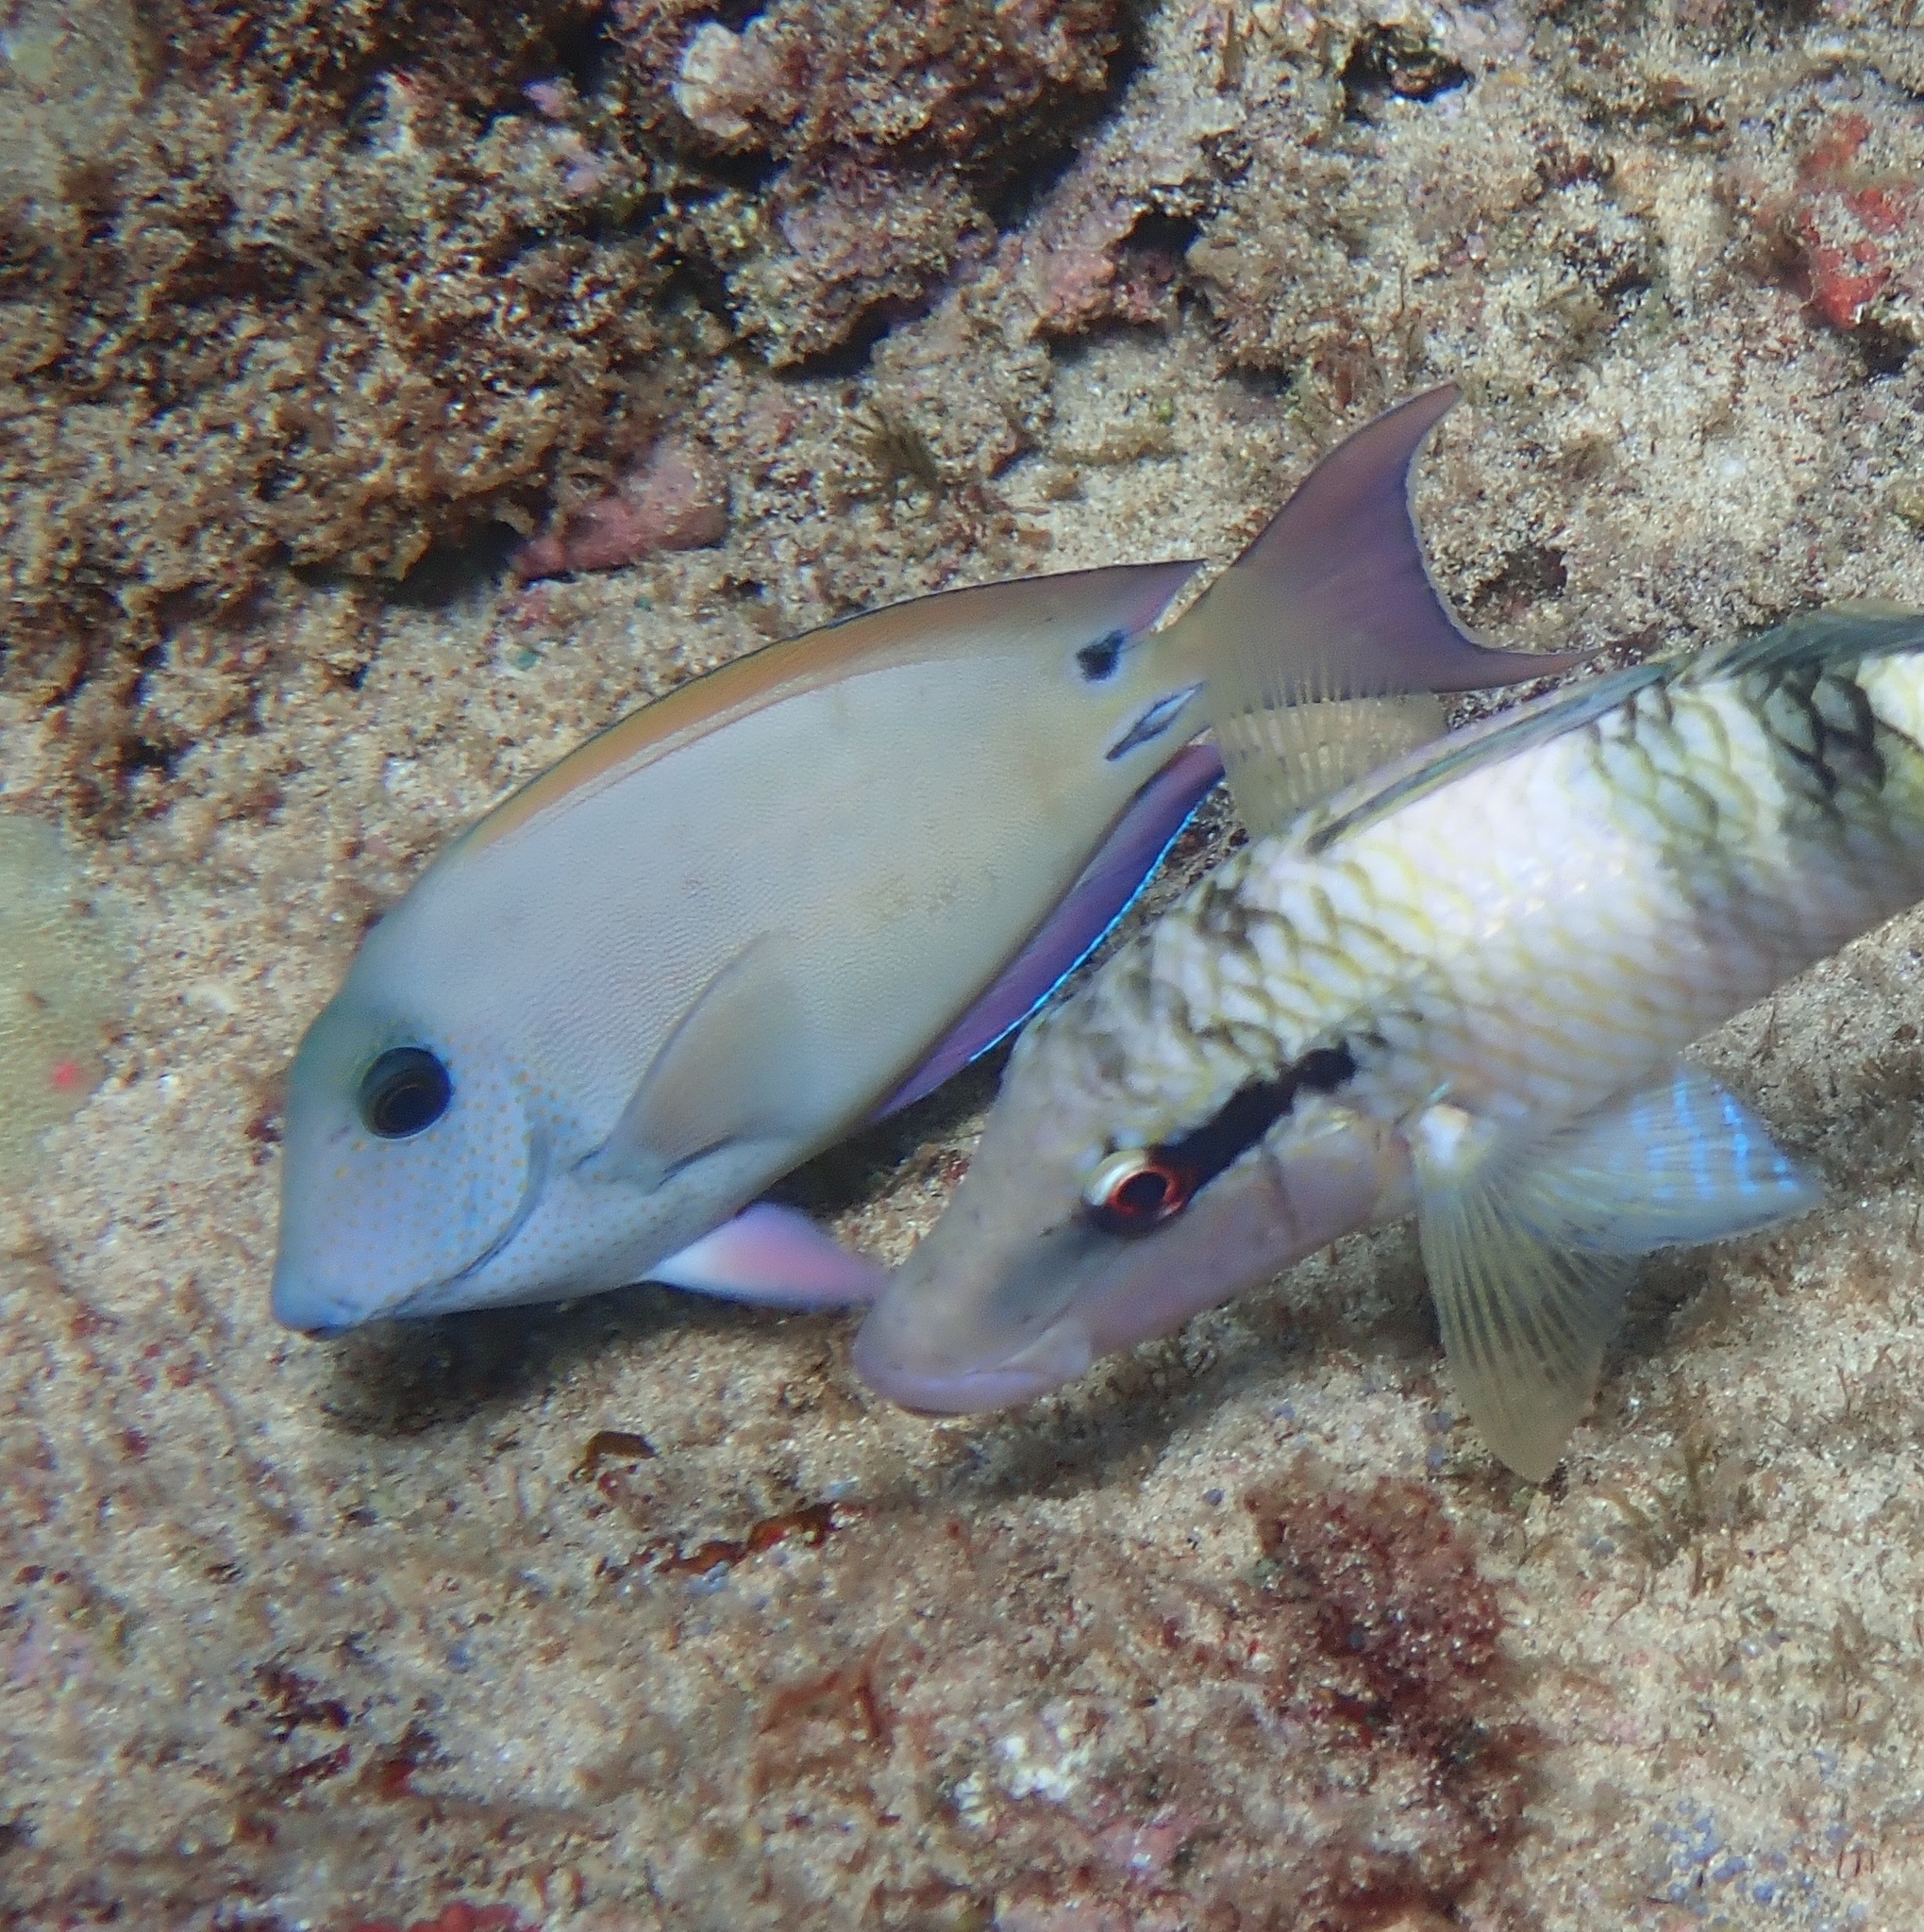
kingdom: Animalia
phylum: Chordata
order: Perciformes
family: Acanthuridae
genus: Acanthurus
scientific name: Acanthurus nigrofuscus
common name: Blackspot surgeonfish
